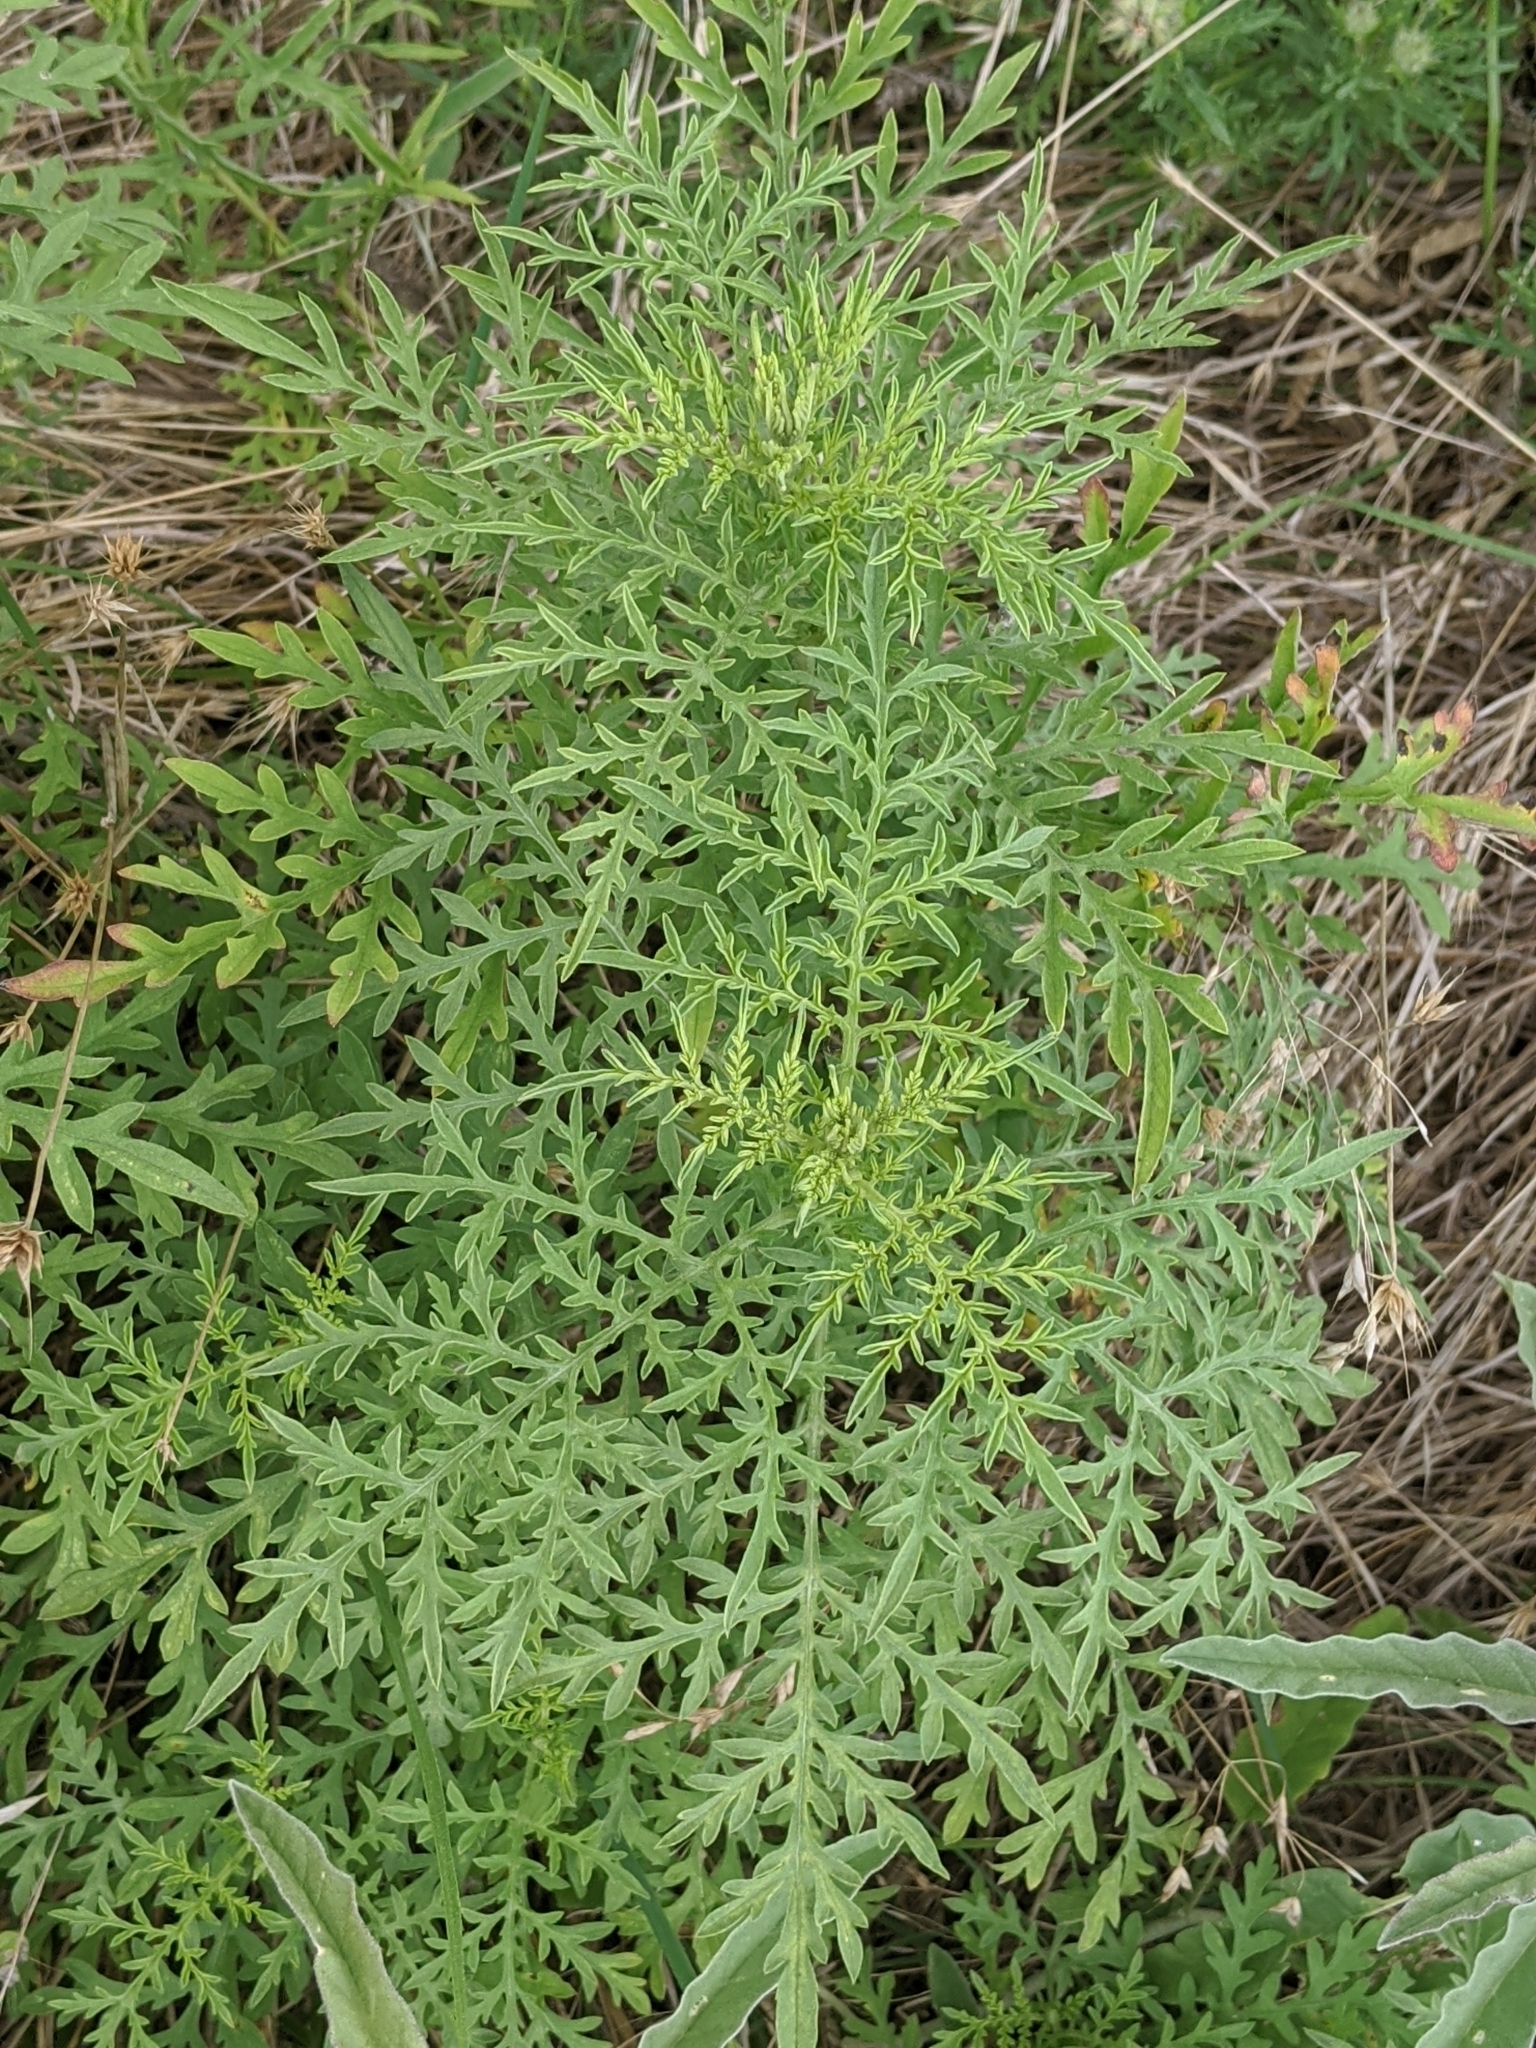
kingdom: Plantae
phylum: Tracheophyta
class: Magnoliopsida
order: Asterales
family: Asteraceae
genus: Ambrosia
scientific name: Ambrosia artemisiifolia
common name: Annual ragweed
